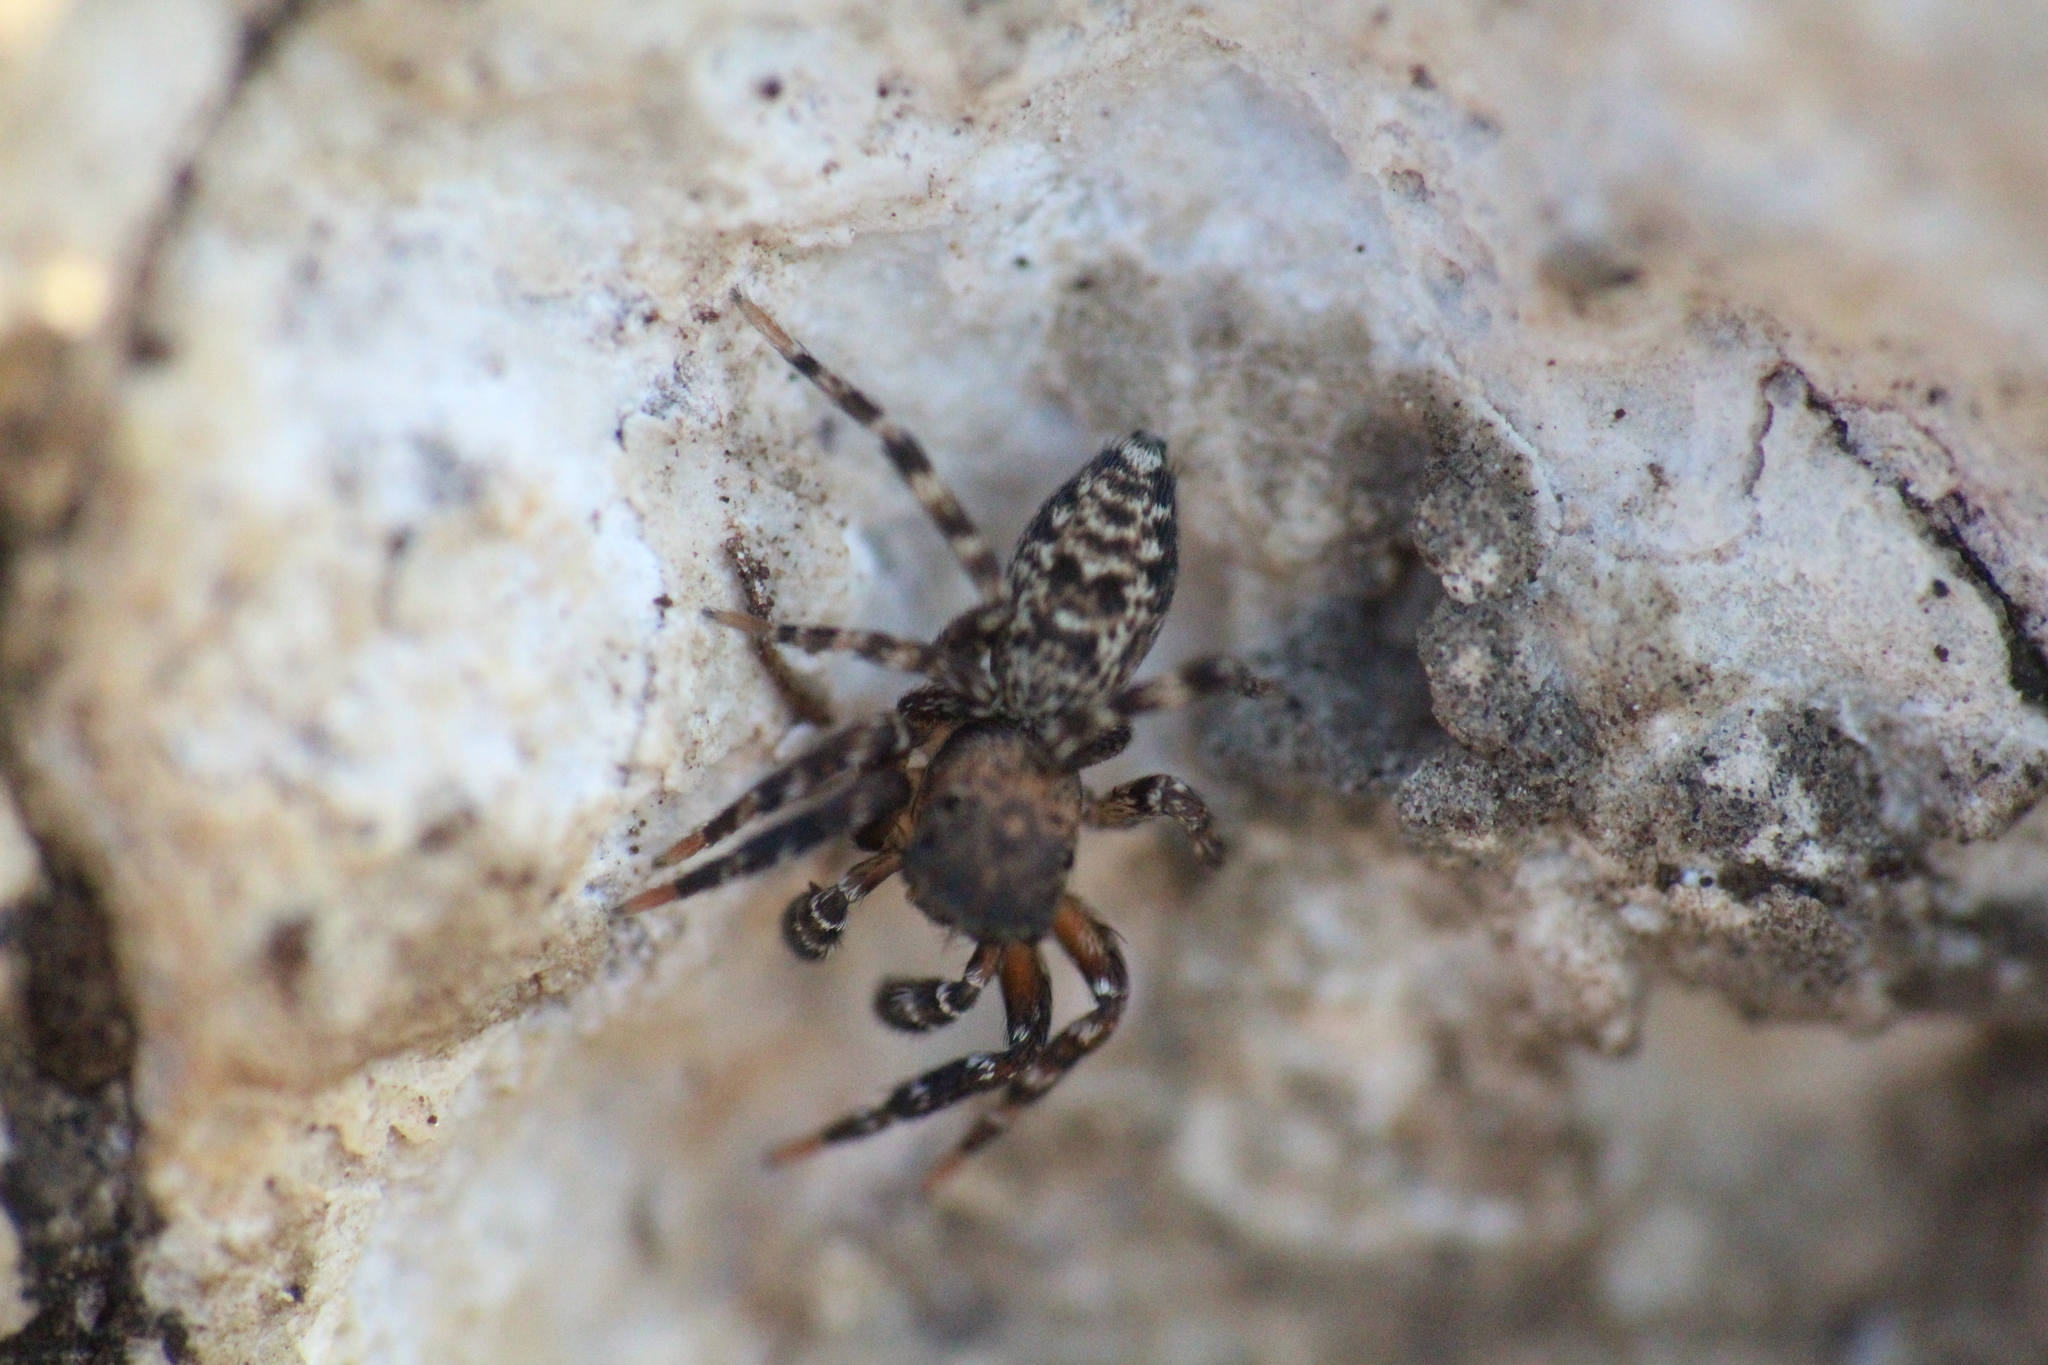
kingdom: Animalia
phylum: Arthropoda
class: Arachnida
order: Araneae
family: Salticidae
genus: Cyrba
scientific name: Cyrba algerina
